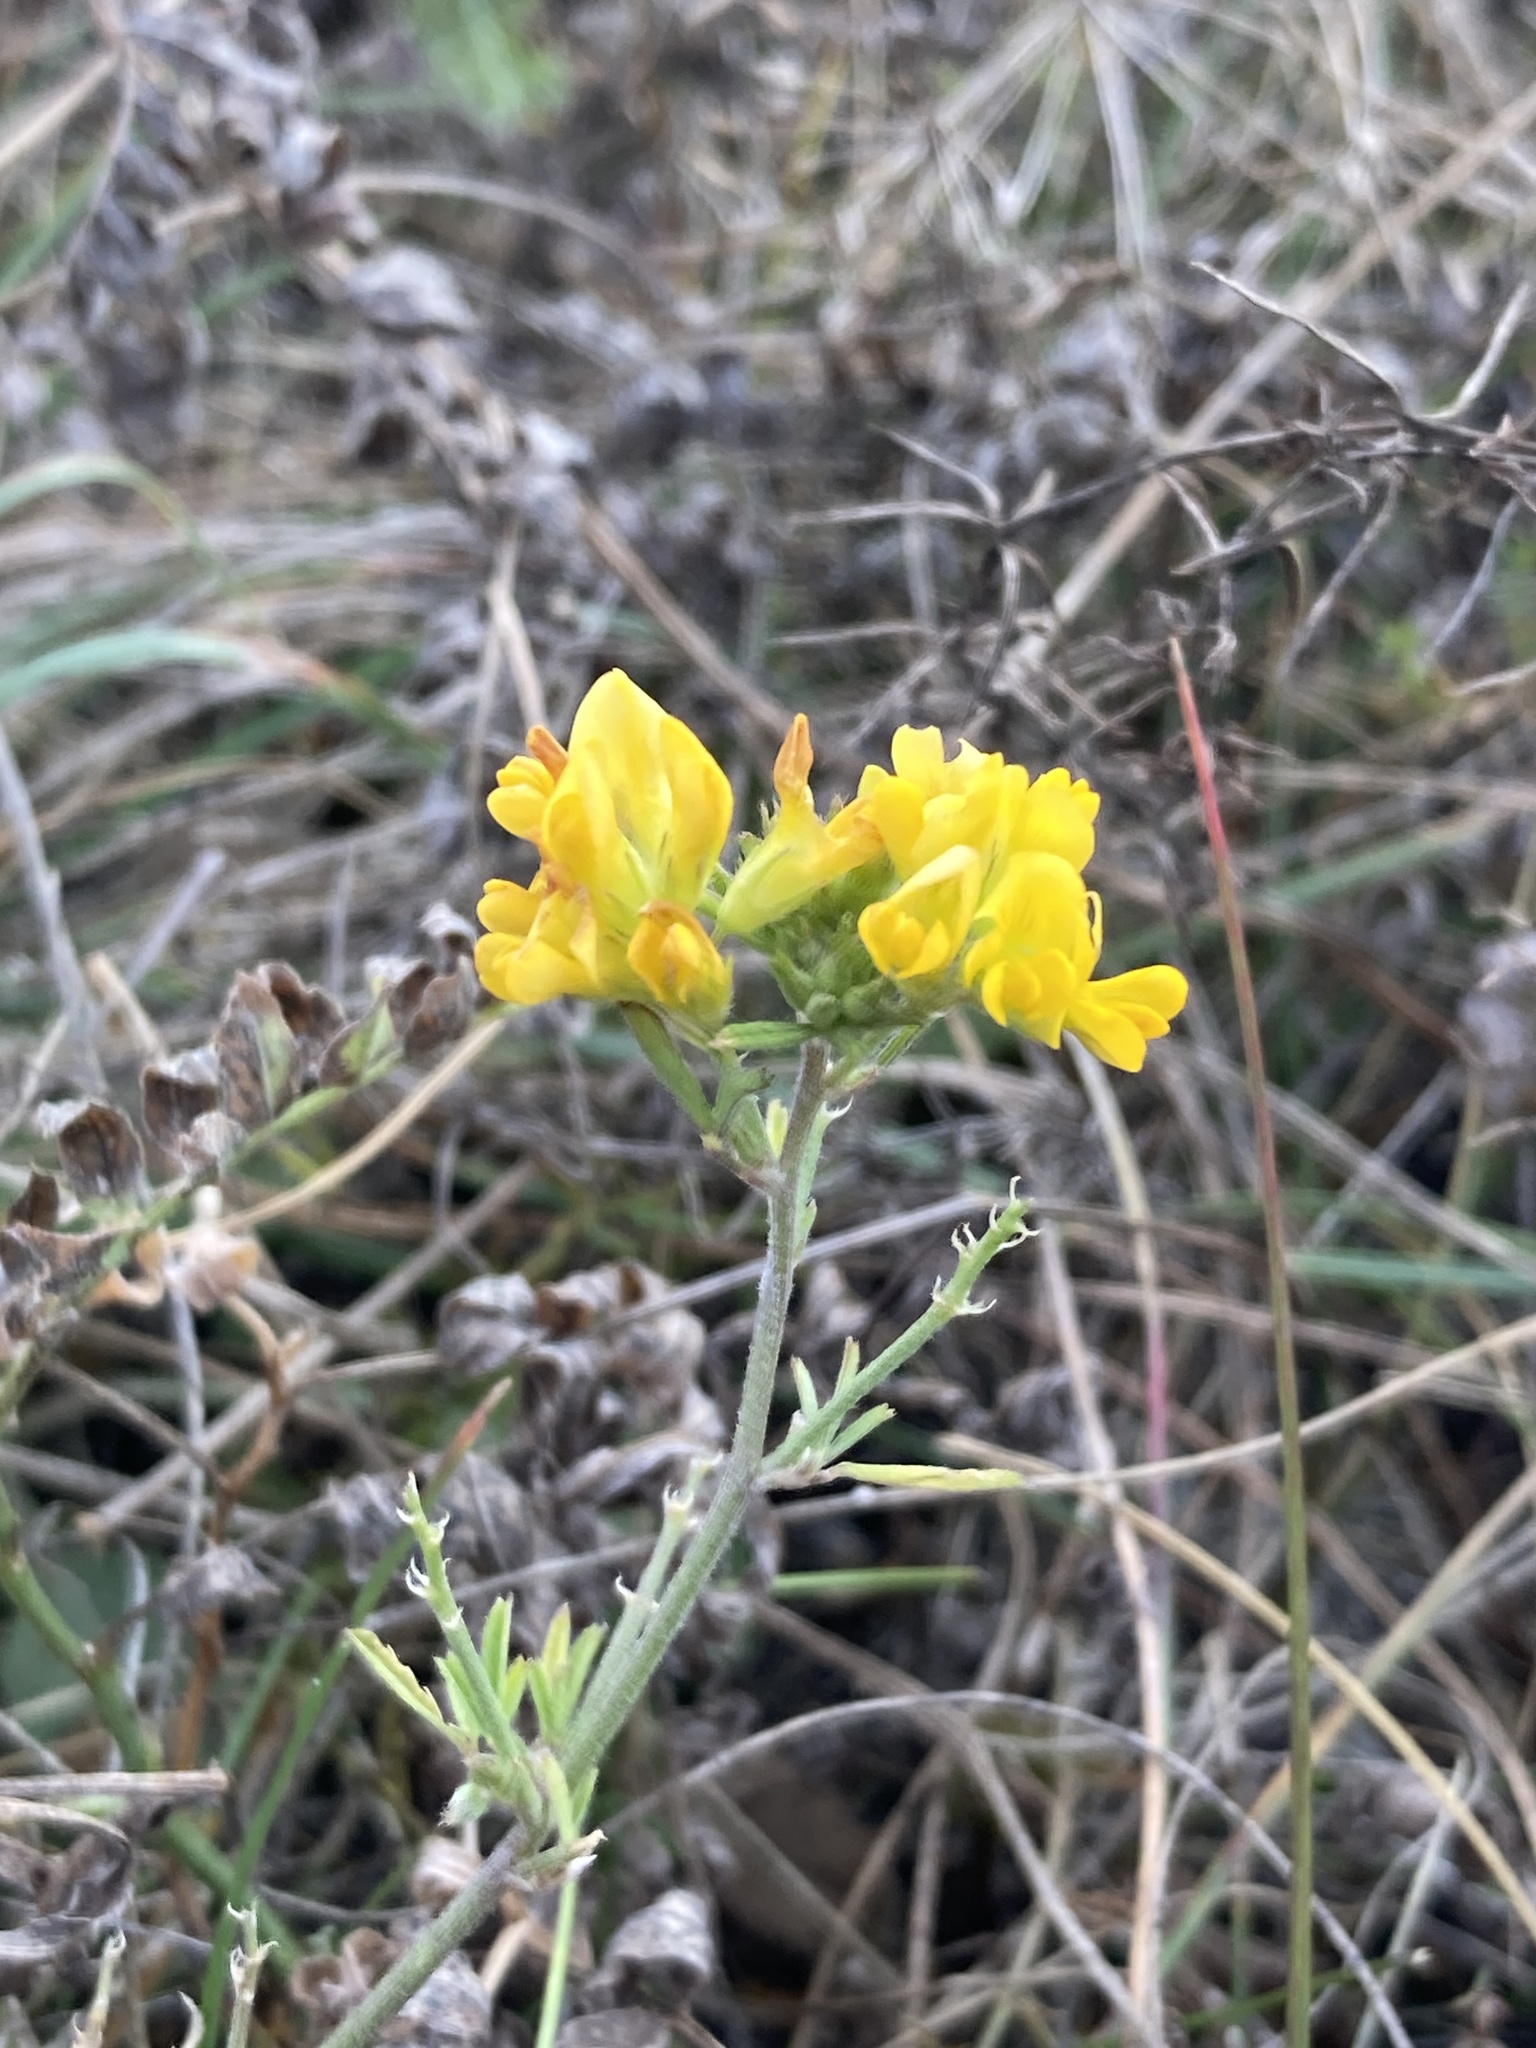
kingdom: Plantae
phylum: Tracheophyta
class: Magnoliopsida
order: Fabales
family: Fabaceae
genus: Medicago
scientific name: Medicago falcata
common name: Sickle medick
